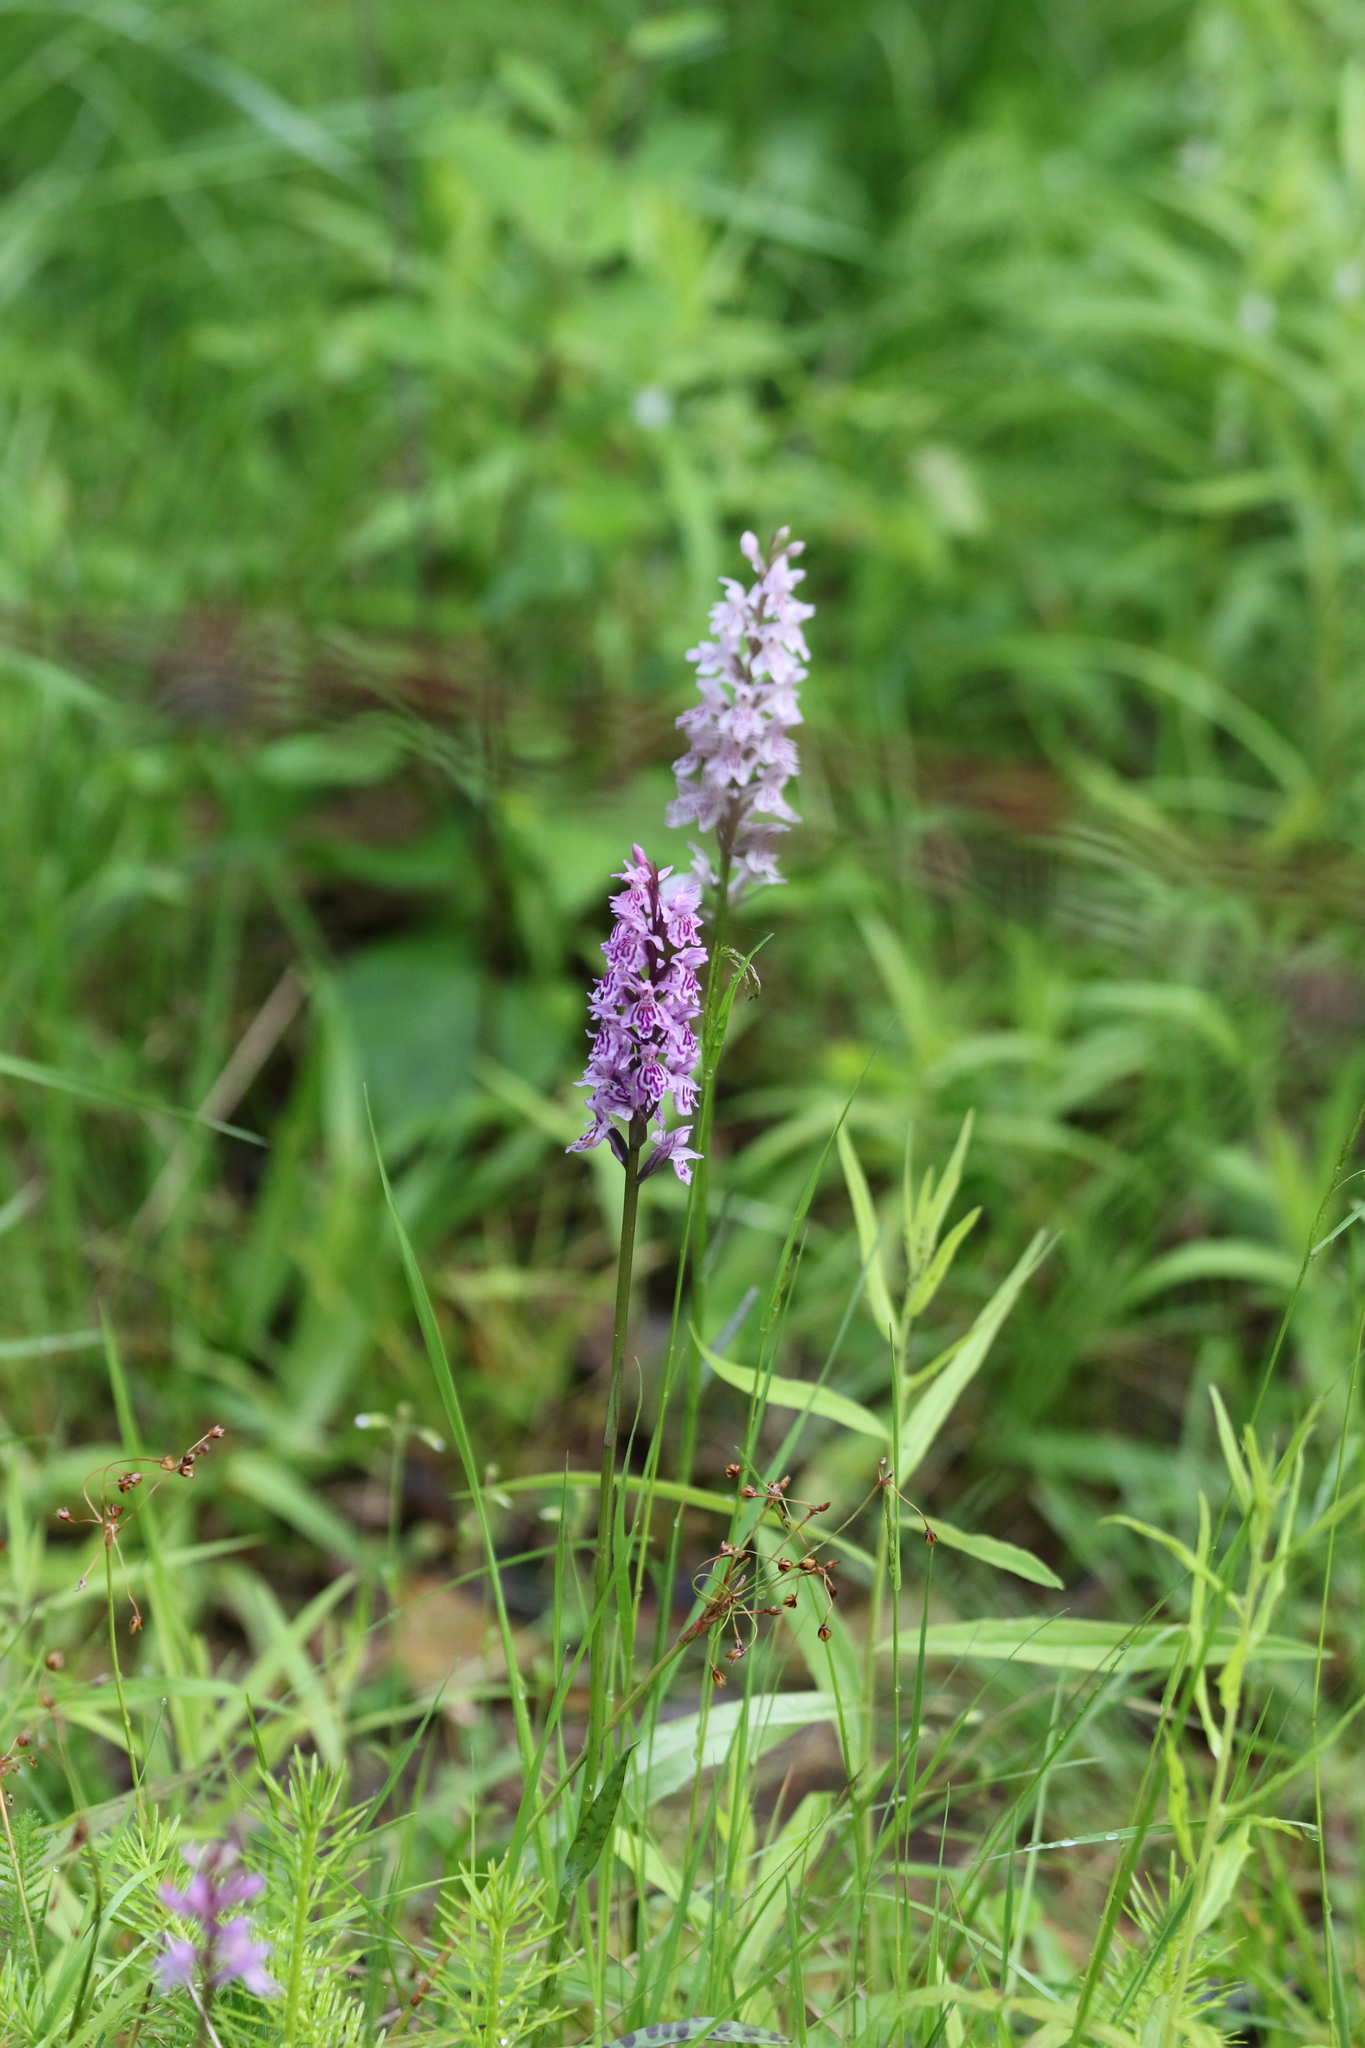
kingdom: Plantae
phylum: Tracheophyta
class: Liliopsida
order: Asparagales
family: Orchidaceae
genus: Dactylorhiza
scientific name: Dactylorhiza maculata
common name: Heath spotted-orchid
